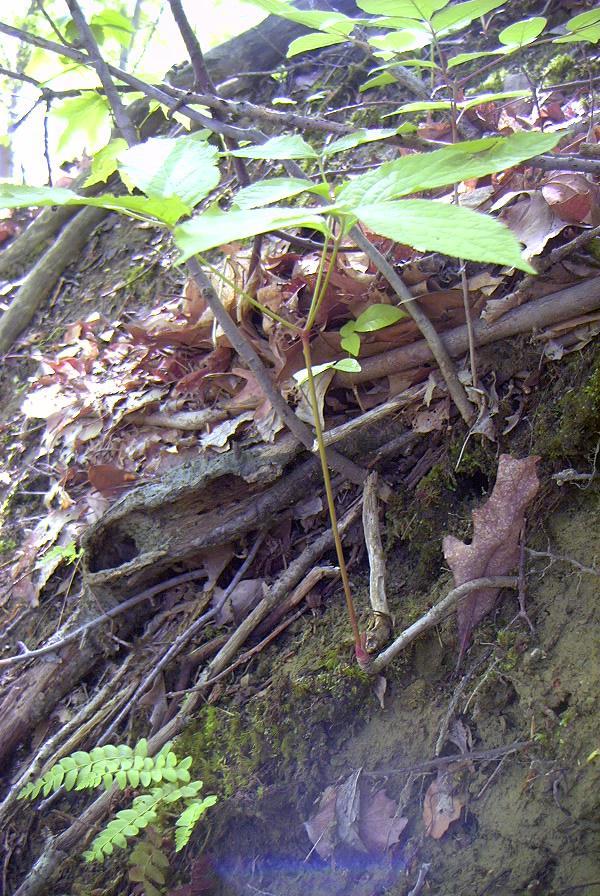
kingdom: Plantae
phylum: Tracheophyta
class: Magnoliopsida
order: Apiales
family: Araliaceae
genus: Aralia
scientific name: Aralia nudicaulis
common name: Wild sarsaparilla
